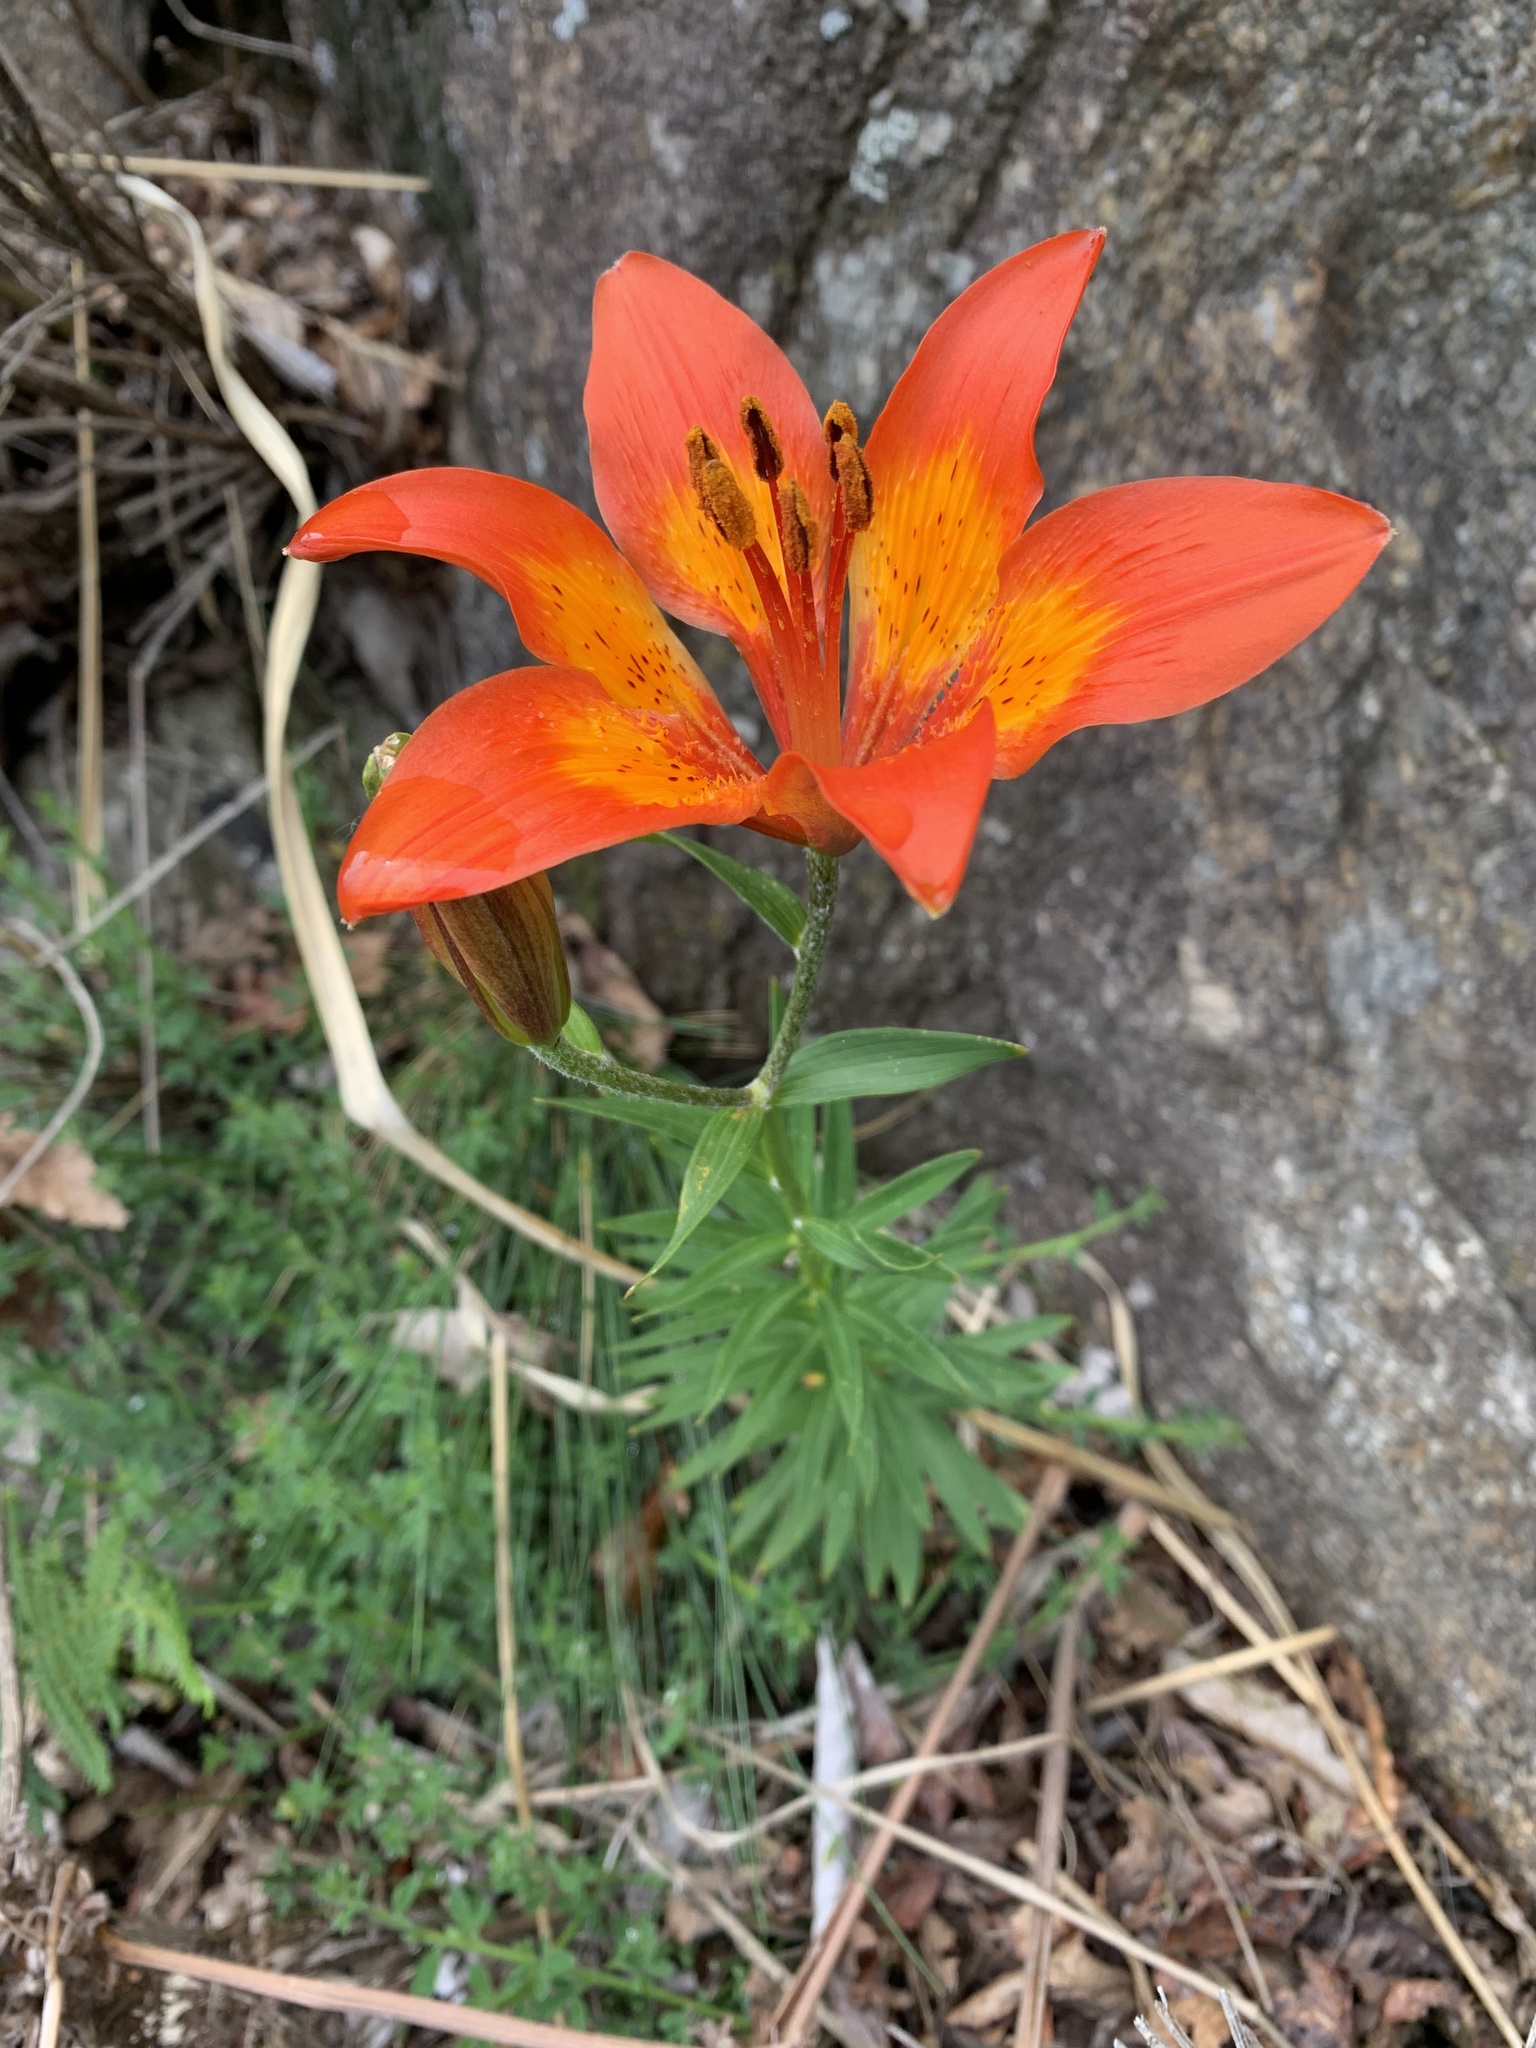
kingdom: Plantae
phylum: Tracheophyta
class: Liliopsida
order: Liliales
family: Liliaceae
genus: Lilium
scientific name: Lilium bulbiferum
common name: Orange lily
